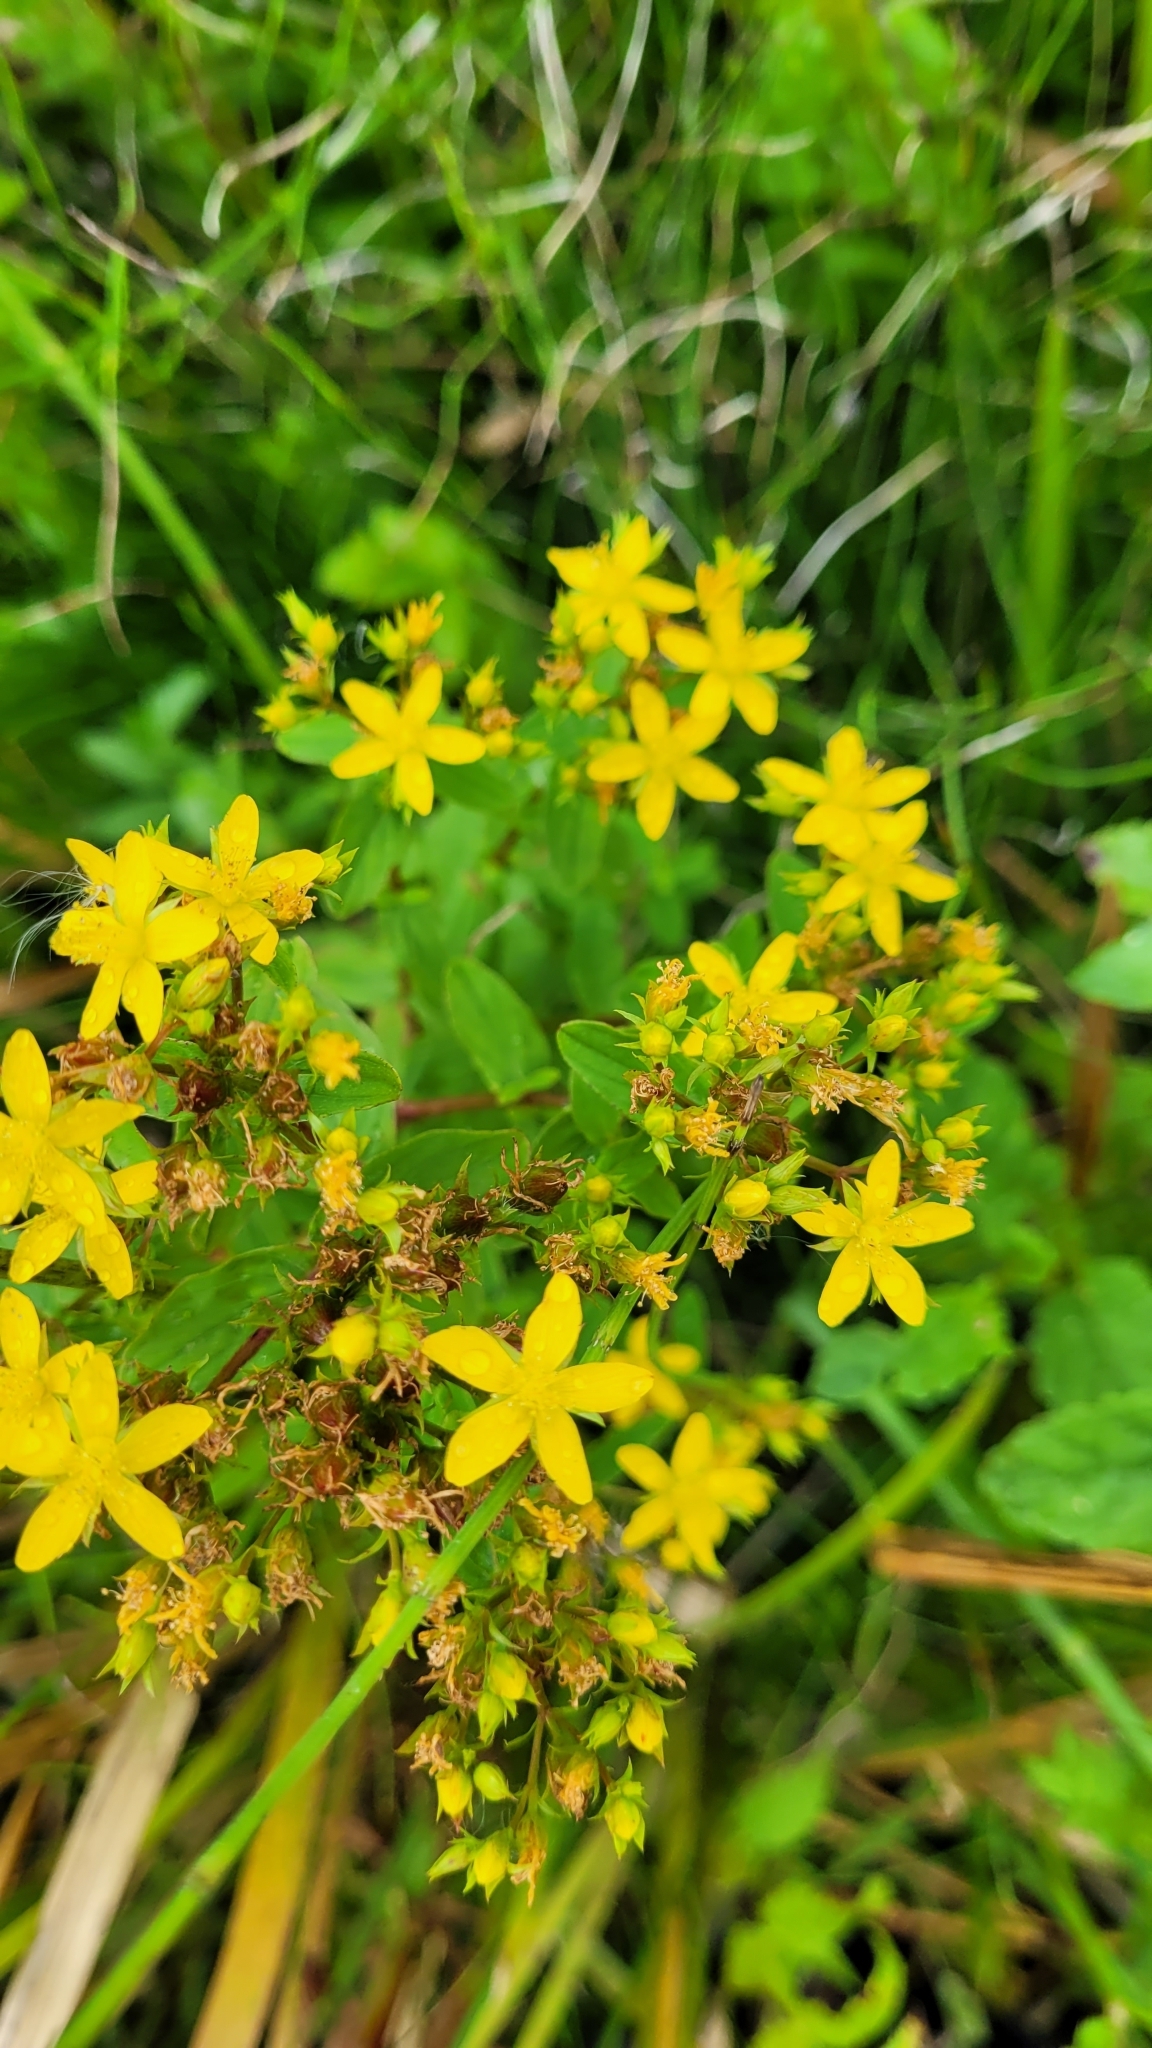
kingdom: Plantae
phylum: Tracheophyta
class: Magnoliopsida
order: Malpighiales
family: Hypericaceae
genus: Hypericum
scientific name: Hypericum tetrapterum
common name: Square-stalked st. john's-wort
